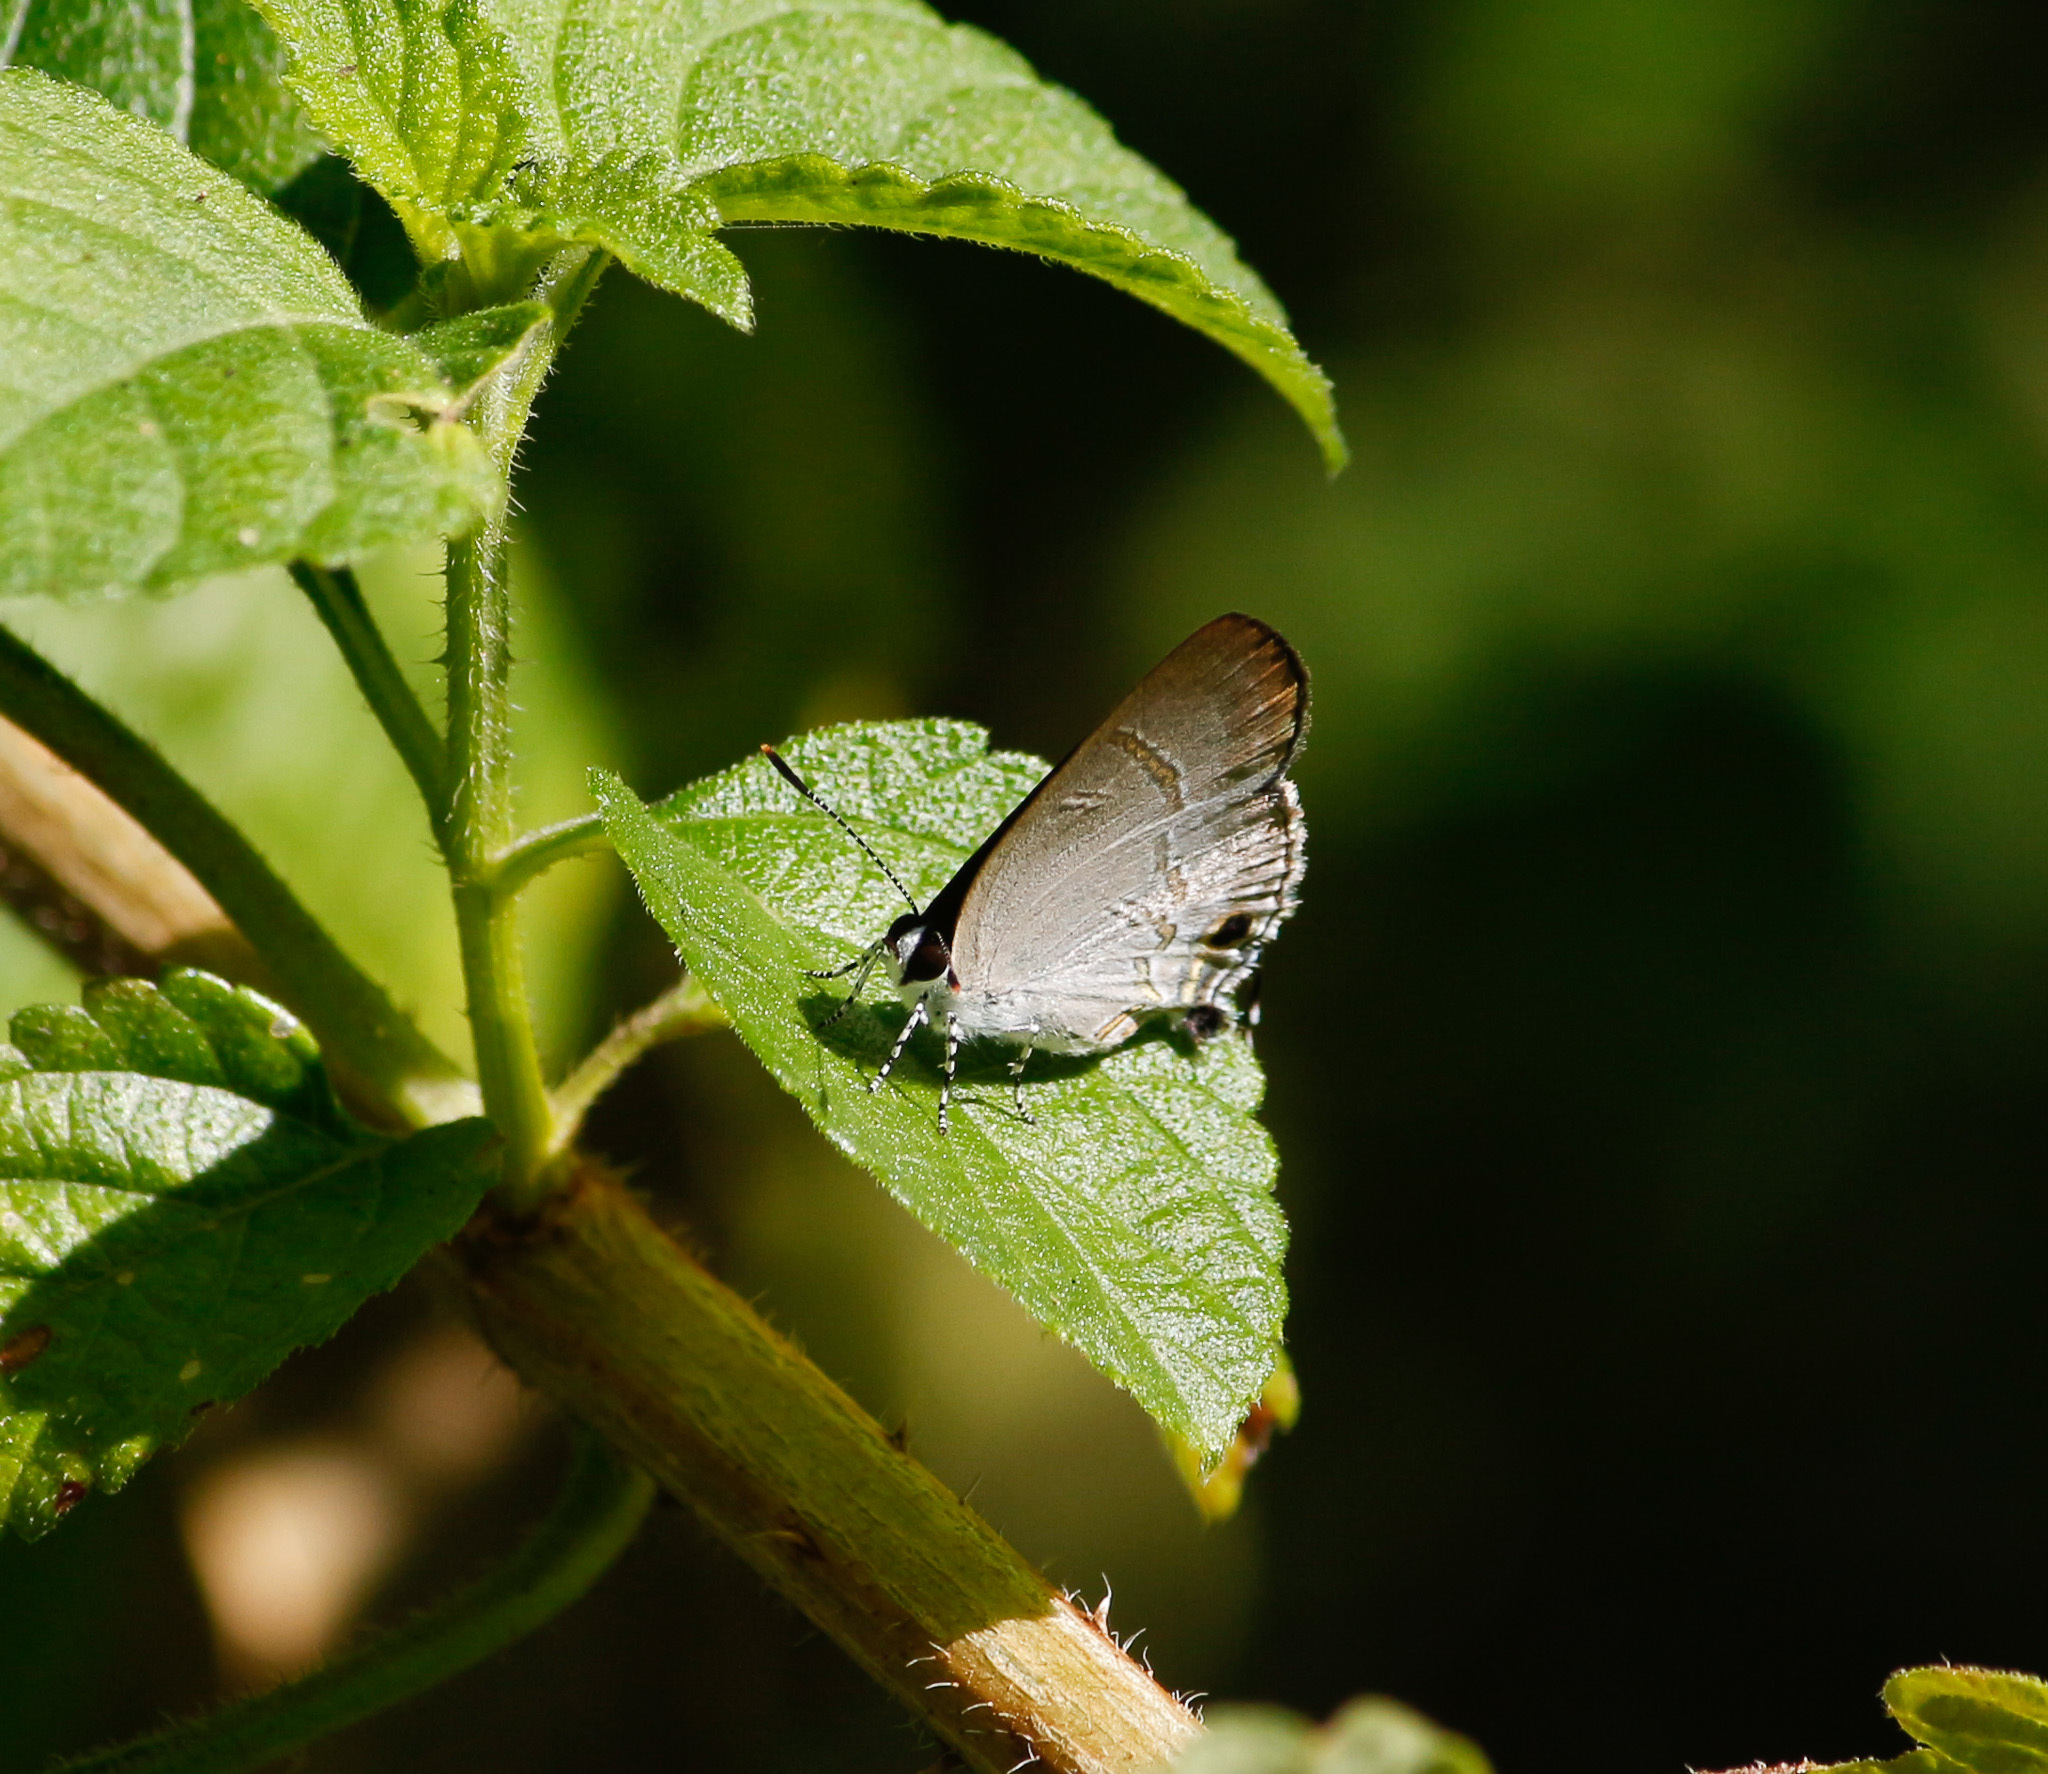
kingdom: Animalia
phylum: Arthropoda
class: Insecta
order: Lepidoptera
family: Lycaenidae
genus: Hypolycaena
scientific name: Hypolycaena erylus
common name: Common tit
